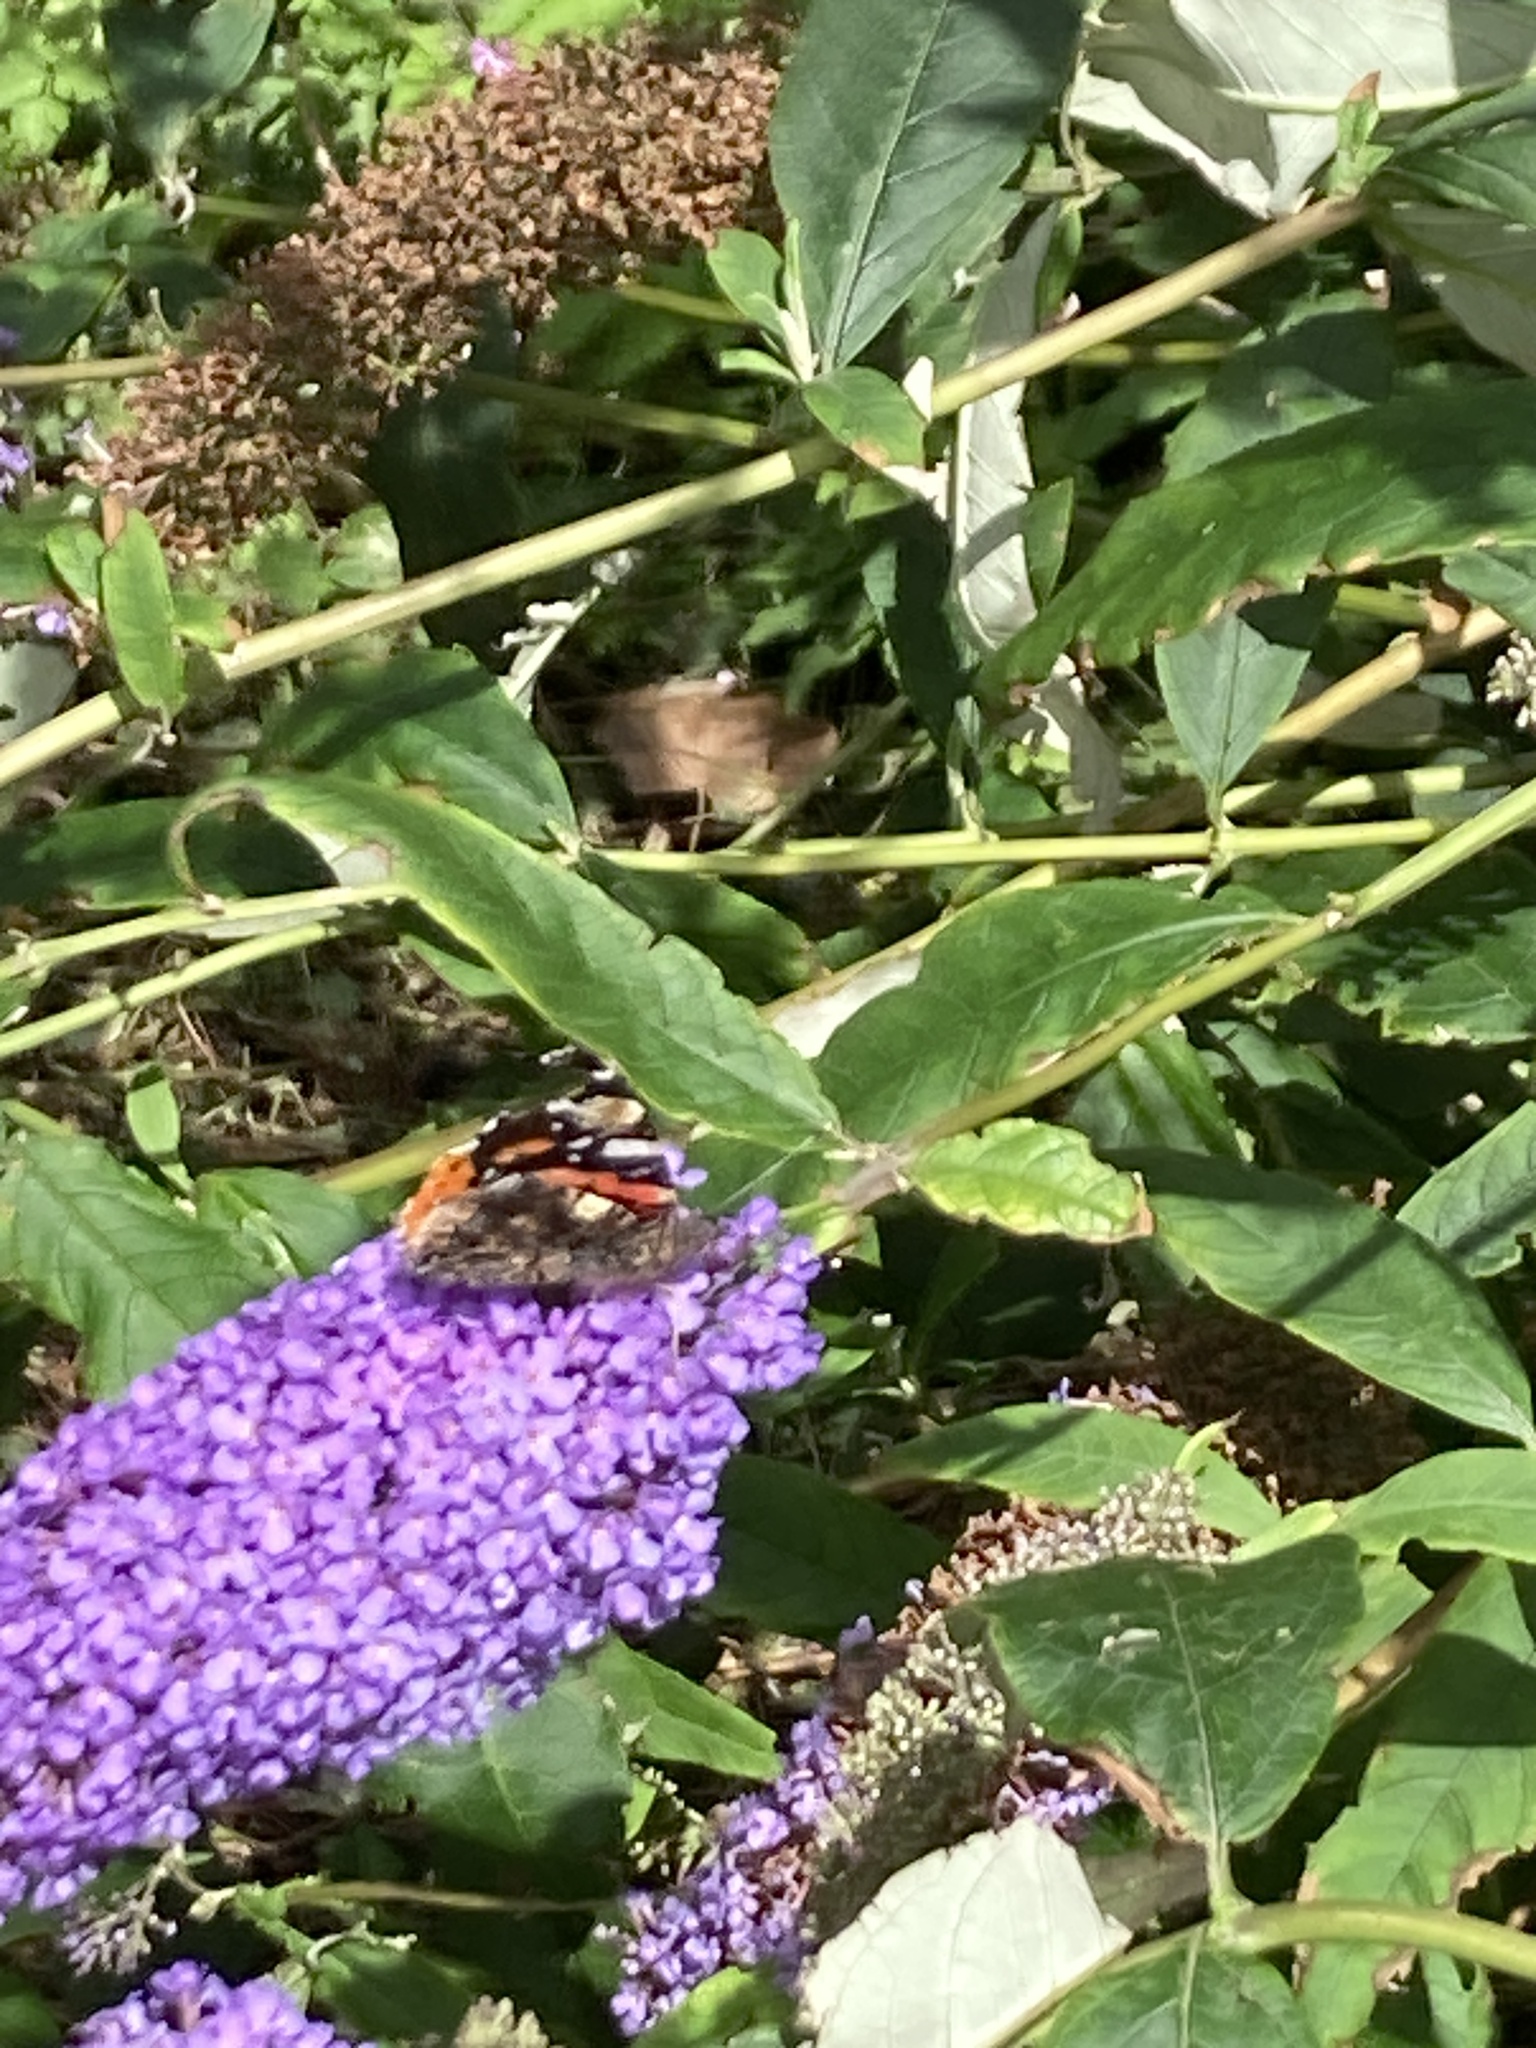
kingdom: Animalia
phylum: Arthropoda
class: Insecta
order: Lepidoptera
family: Nymphalidae
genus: Vanessa
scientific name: Vanessa atalanta
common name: Red admiral
